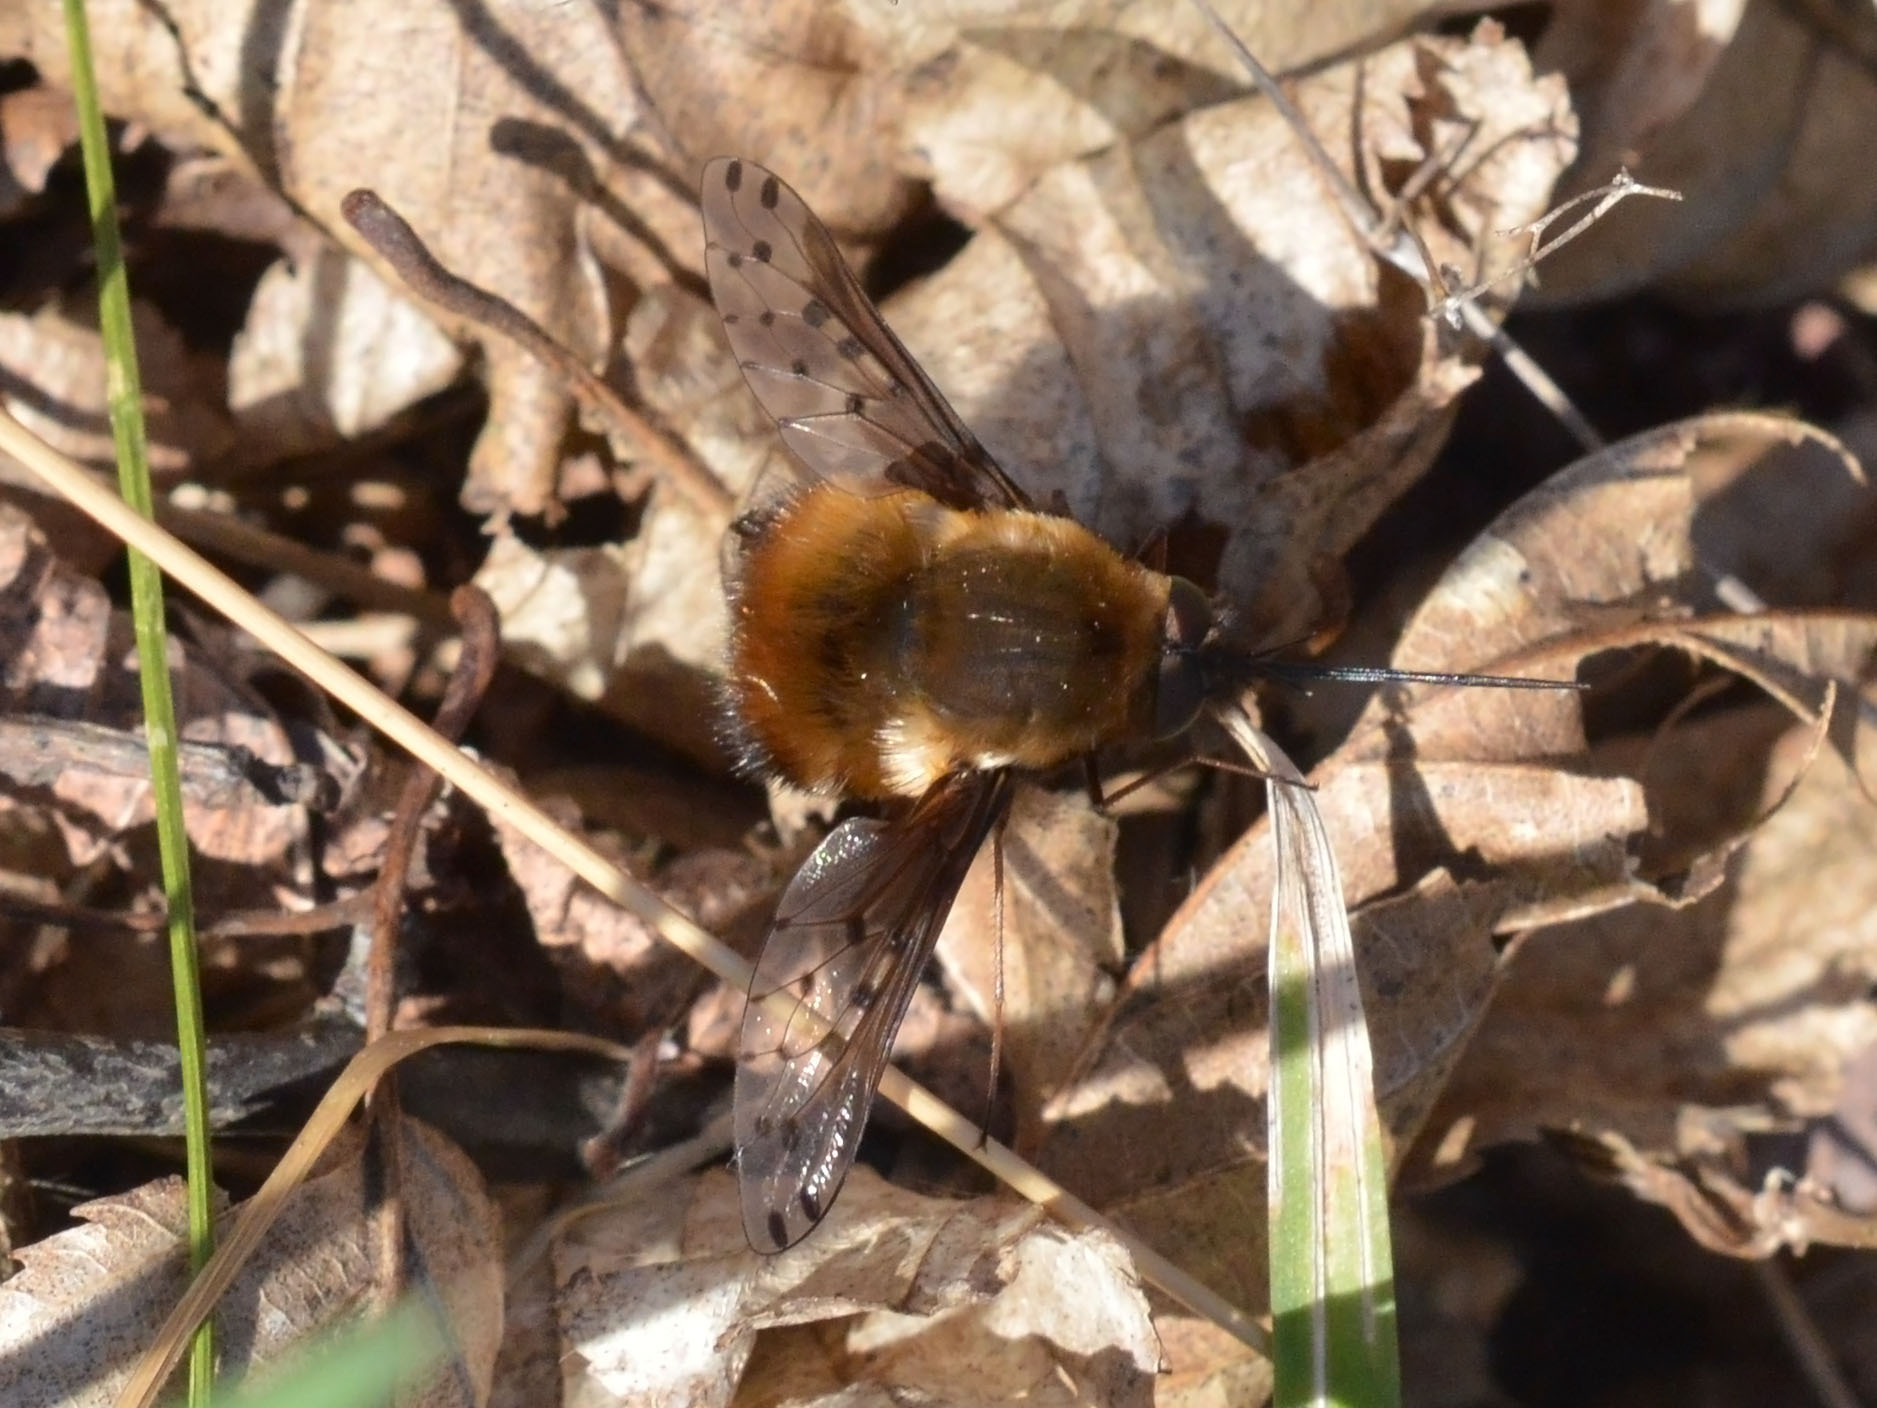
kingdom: Animalia
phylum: Arthropoda
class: Insecta
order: Diptera
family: Bombyliidae
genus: Bombylius
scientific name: Bombylius discolor
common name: Dotted bee-fly
